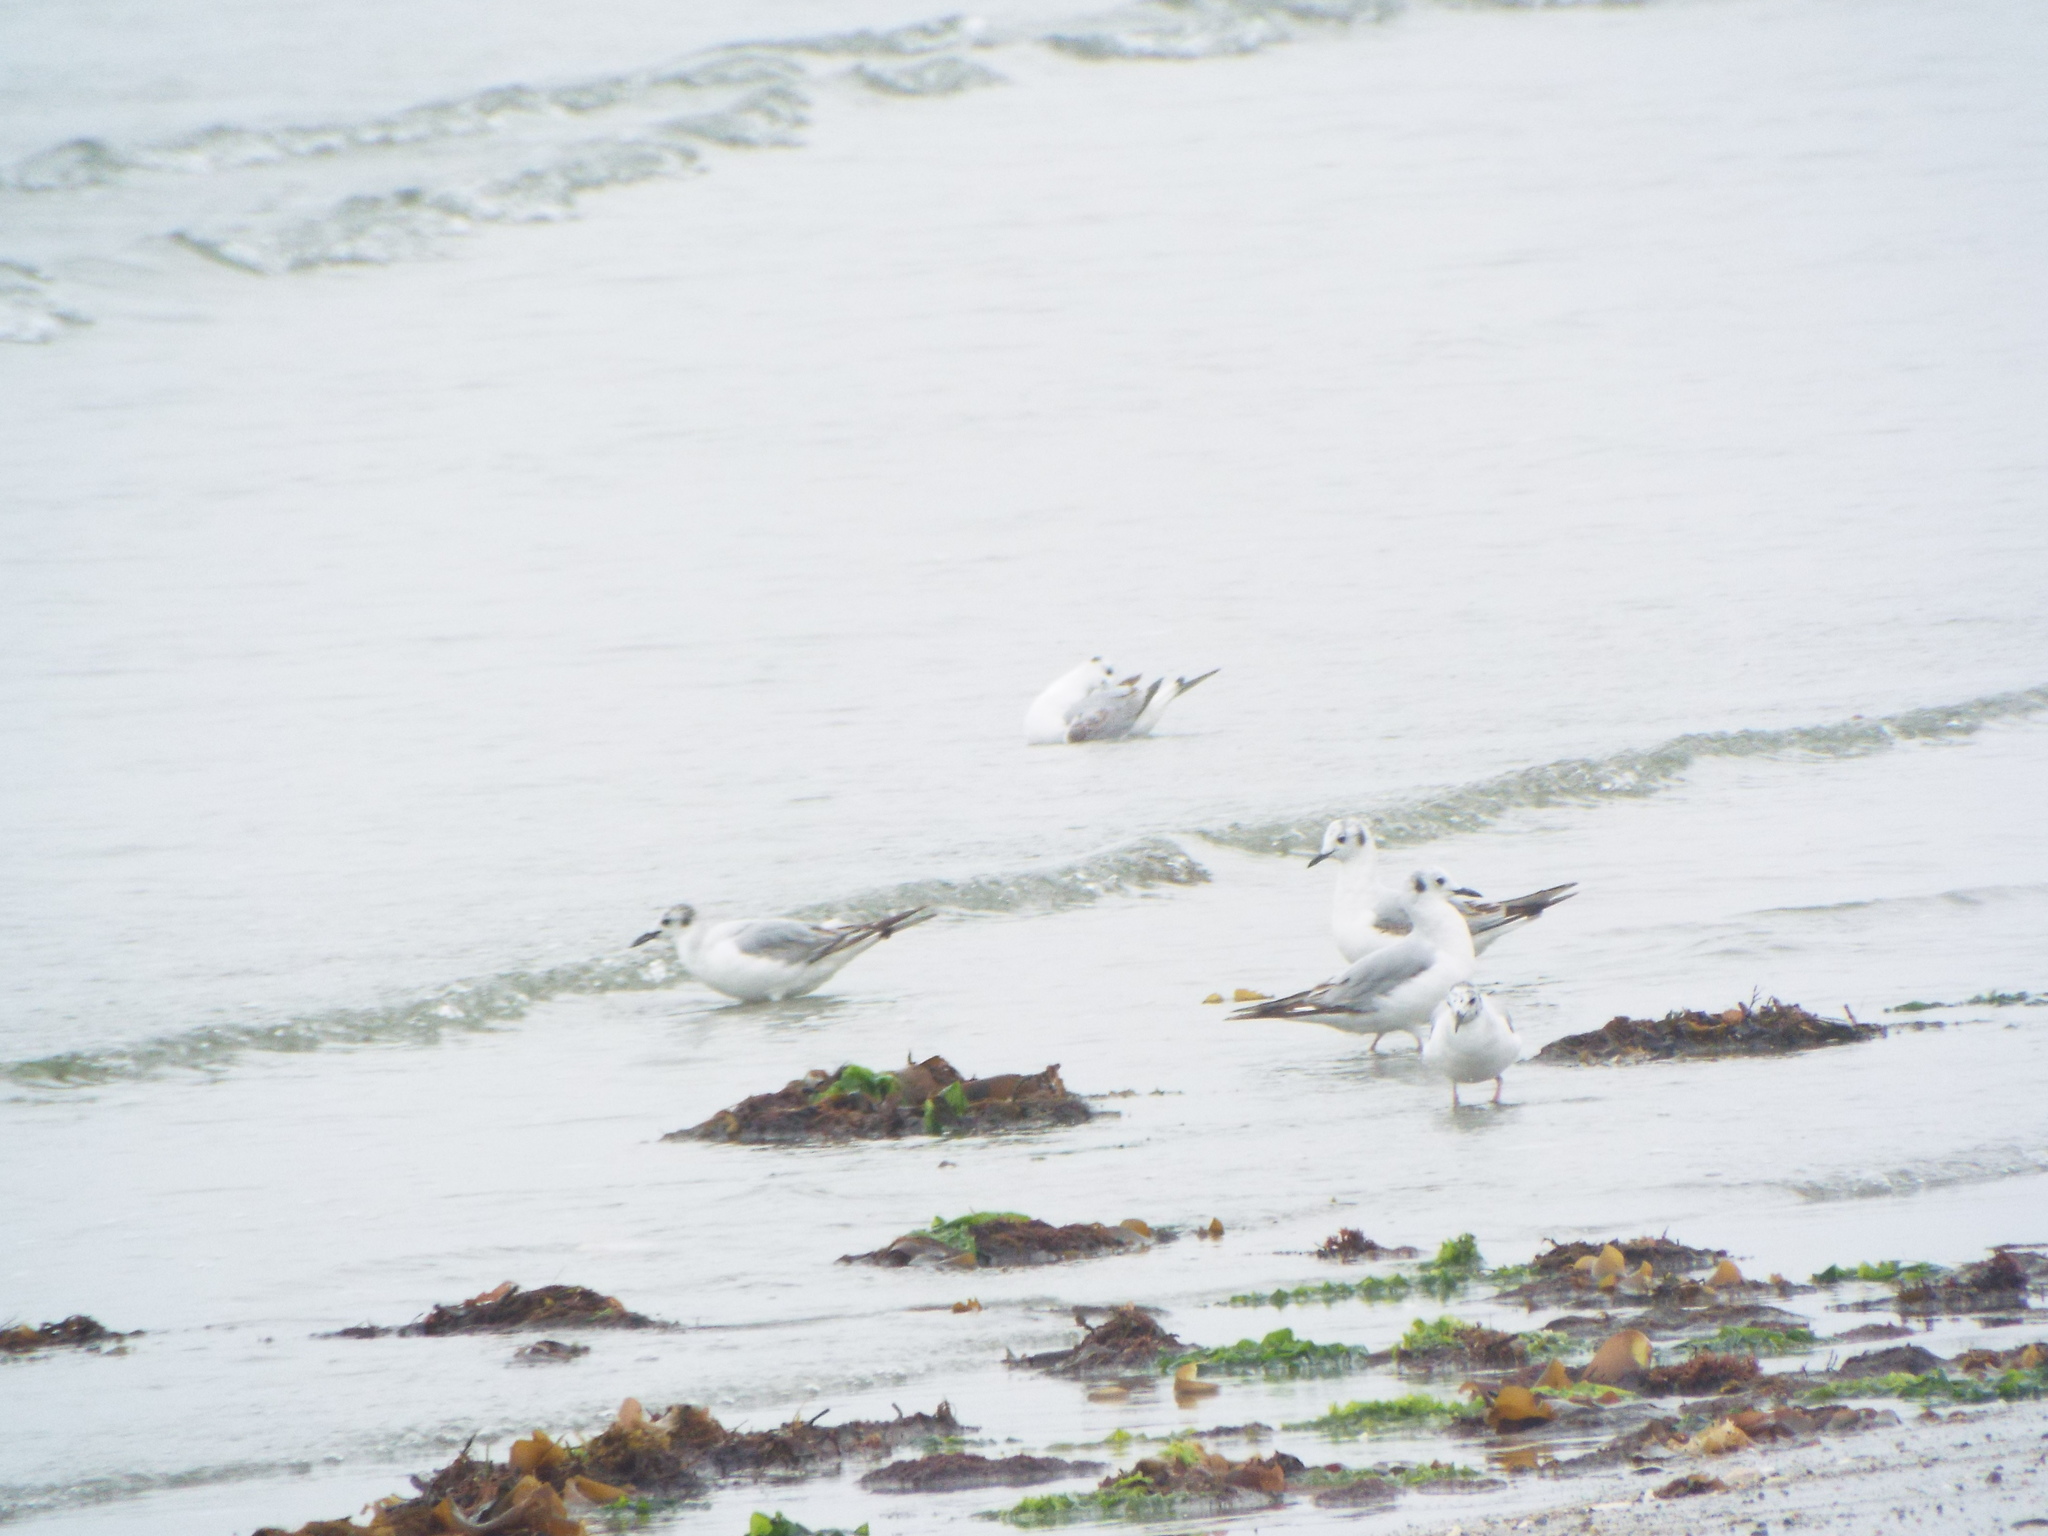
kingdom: Animalia
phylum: Chordata
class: Aves
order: Charadriiformes
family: Laridae
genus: Chroicocephalus
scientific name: Chroicocephalus philadelphia
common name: Bonaparte's gull
